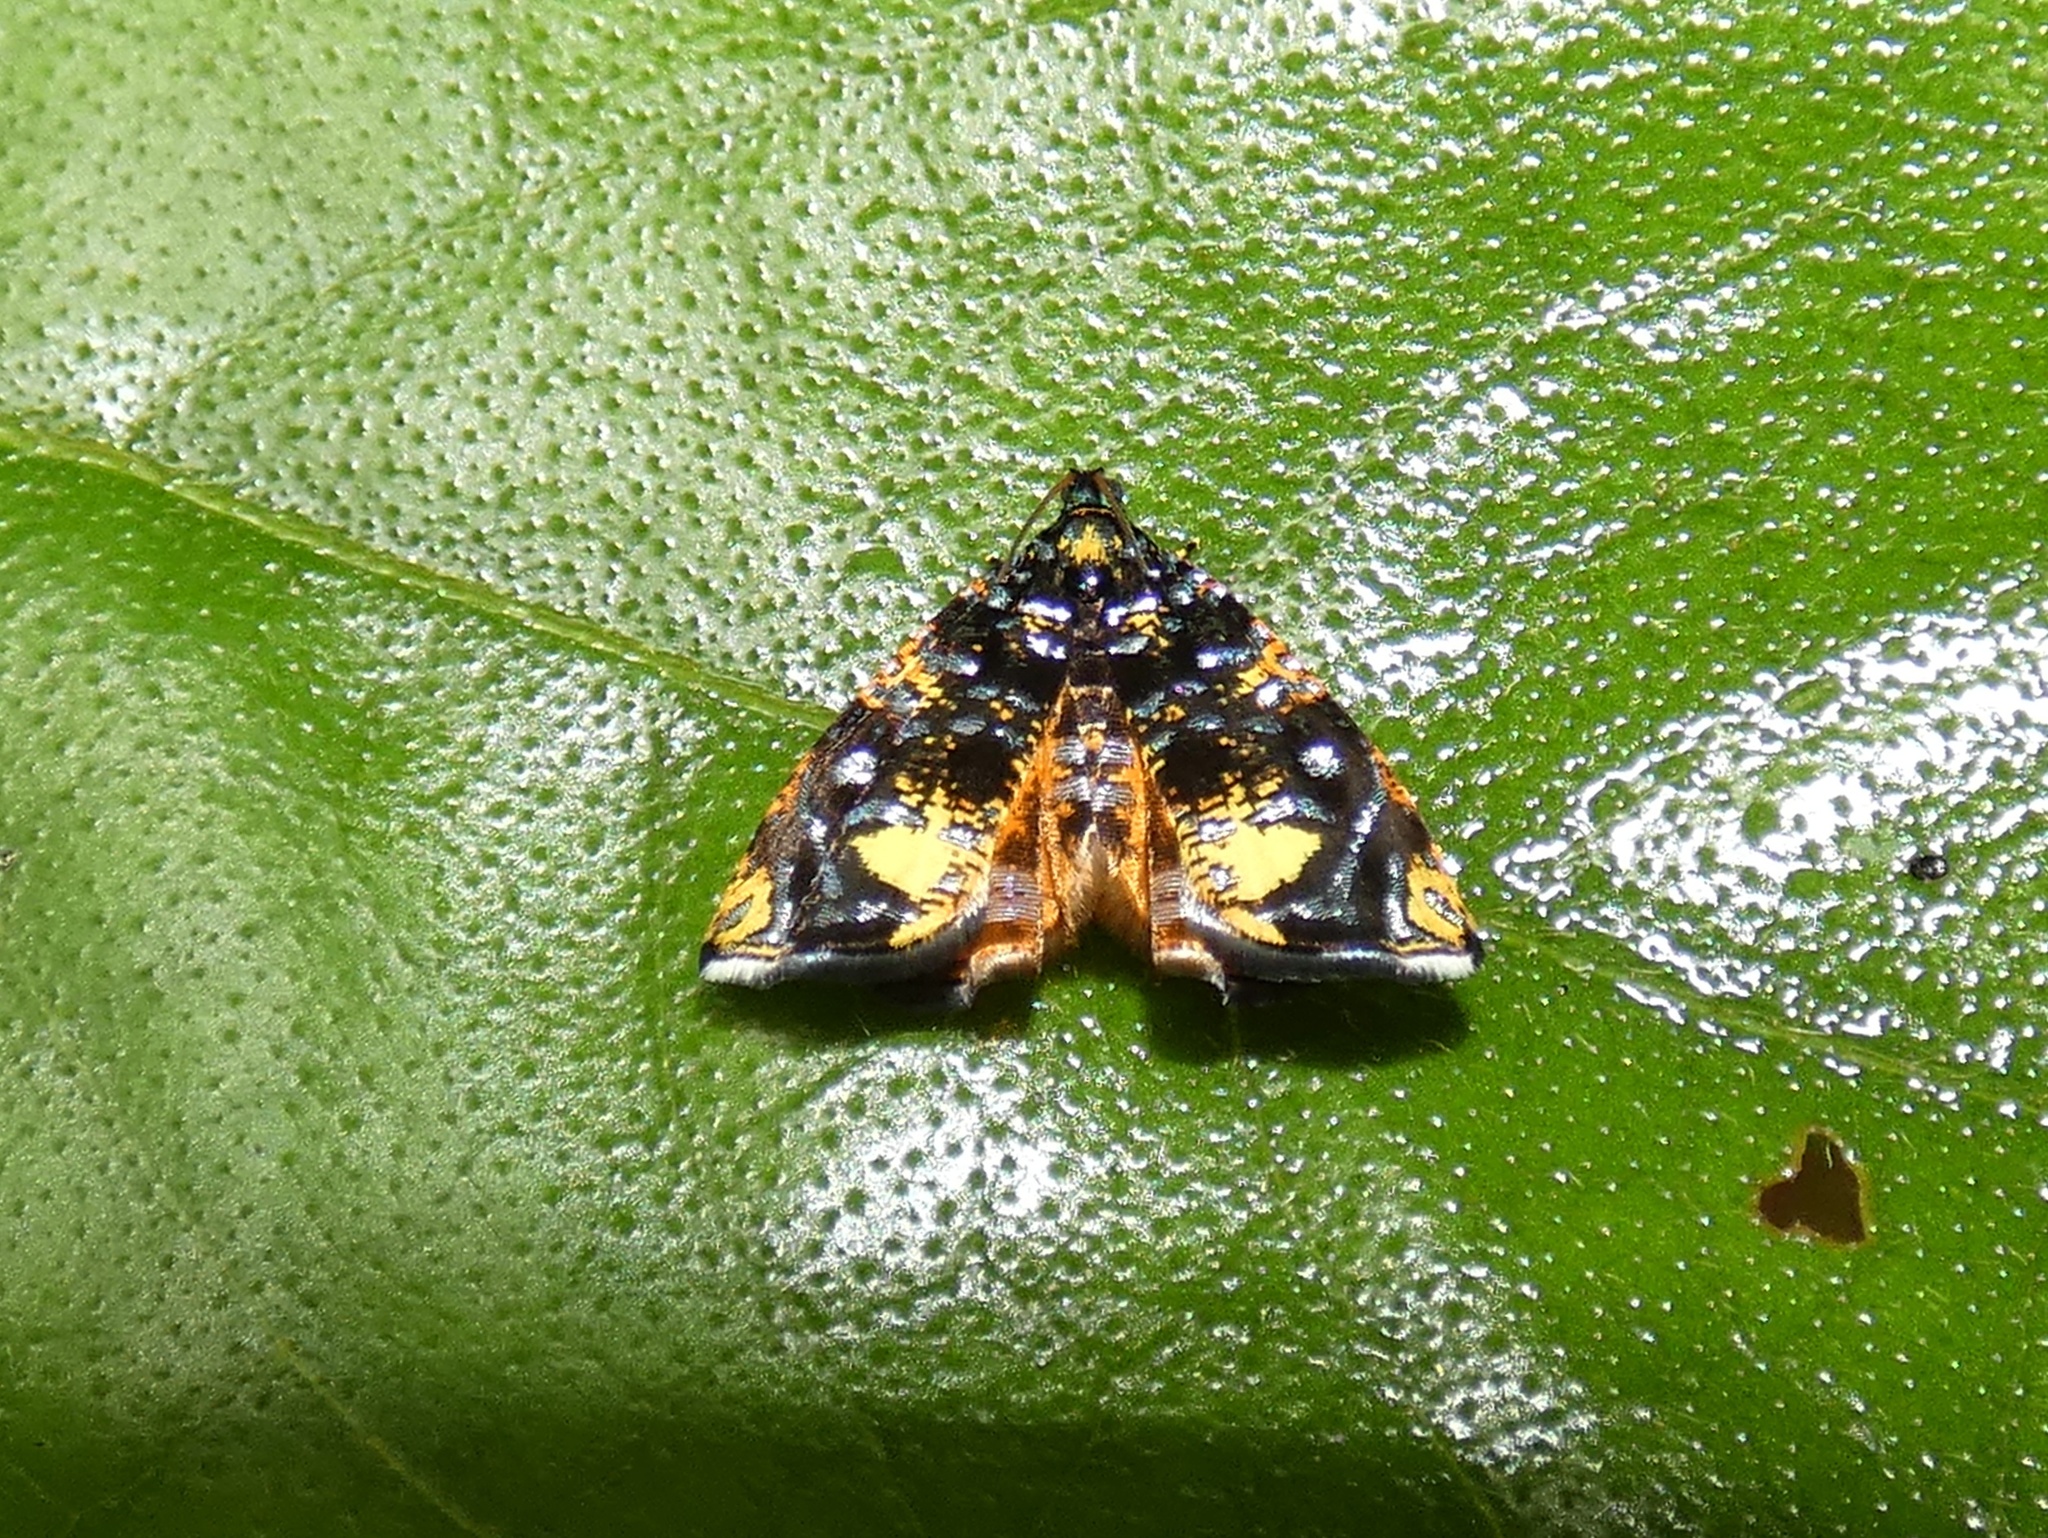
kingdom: Animalia
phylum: Arthropoda
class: Insecta
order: Lepidoptera
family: Tortricidae
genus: Mictopsichia
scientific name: Mictopsichia hubneriana
